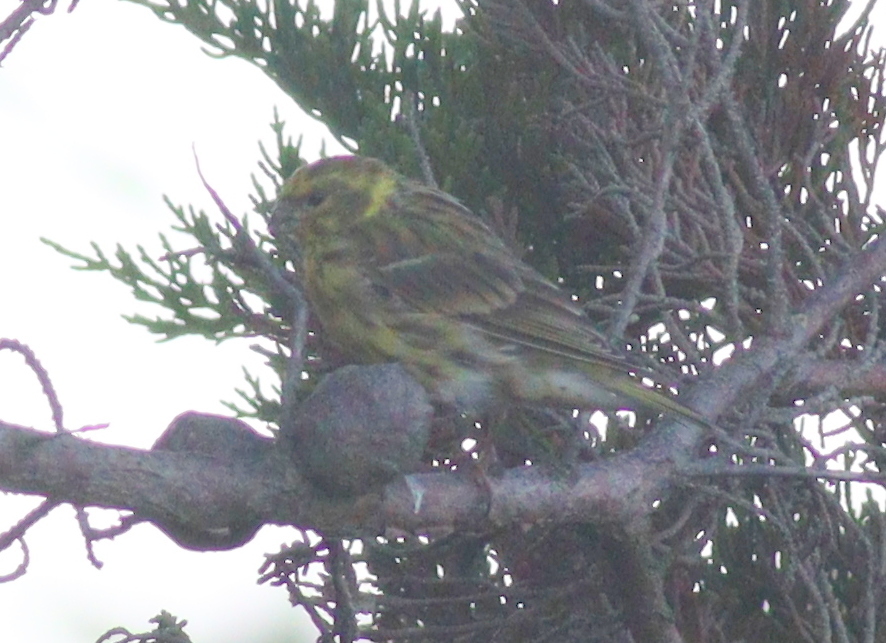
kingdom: Animalia
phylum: Chordata
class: Aves
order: Passeriformes
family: Fringillidae
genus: Serinus
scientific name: Serinus serinus
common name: European serin
